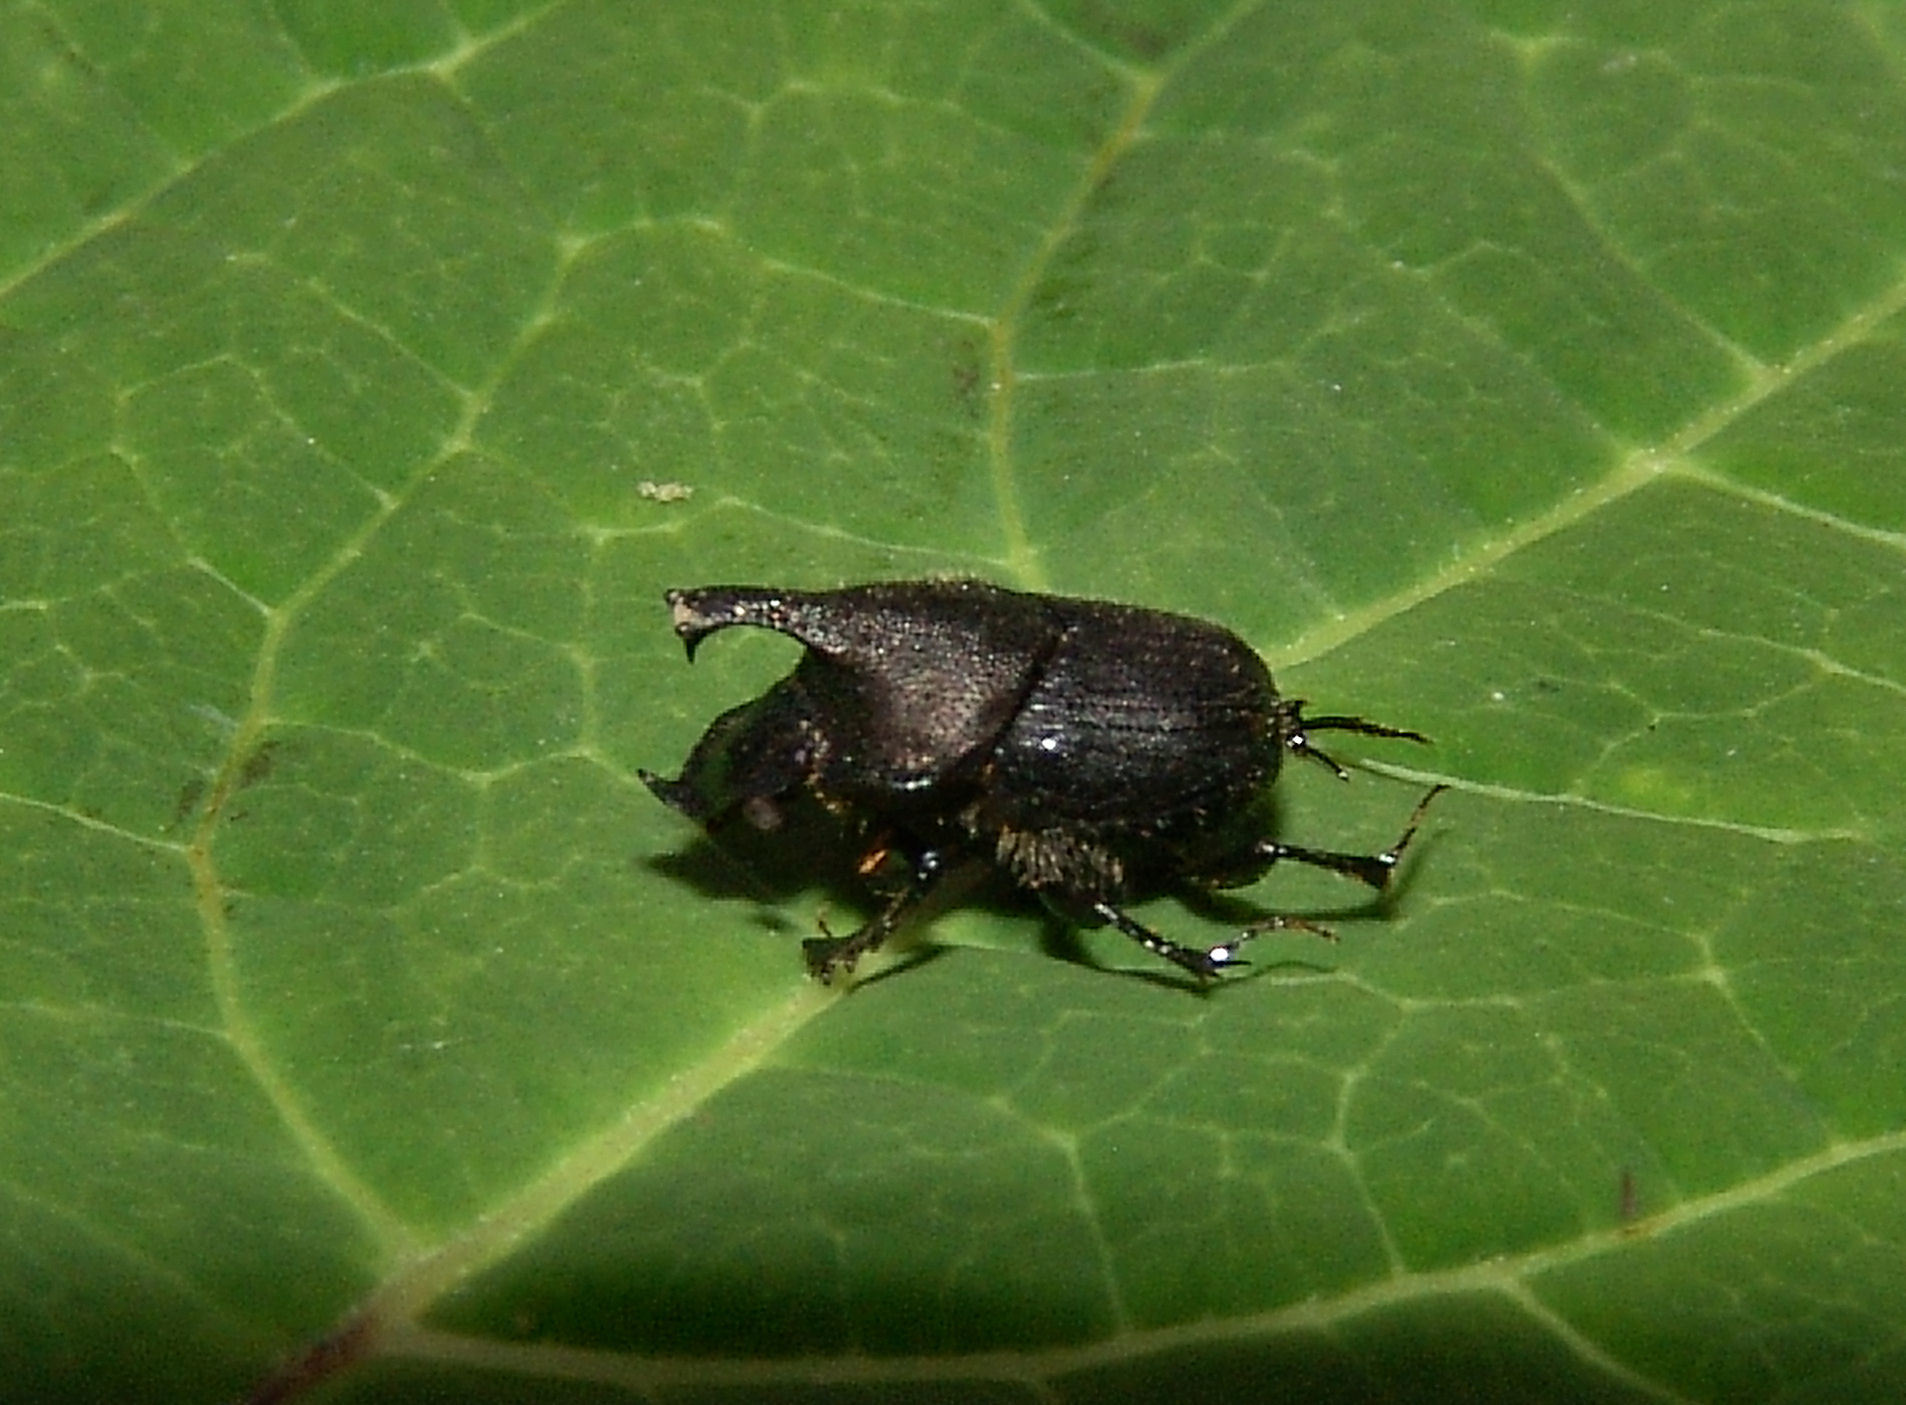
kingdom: Animalia
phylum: Arthropoda
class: Insecta
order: Coleoptera
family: Scarabaeidae
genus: Onthophagus
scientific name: Onthophagus hecate
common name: Scooped scarab
